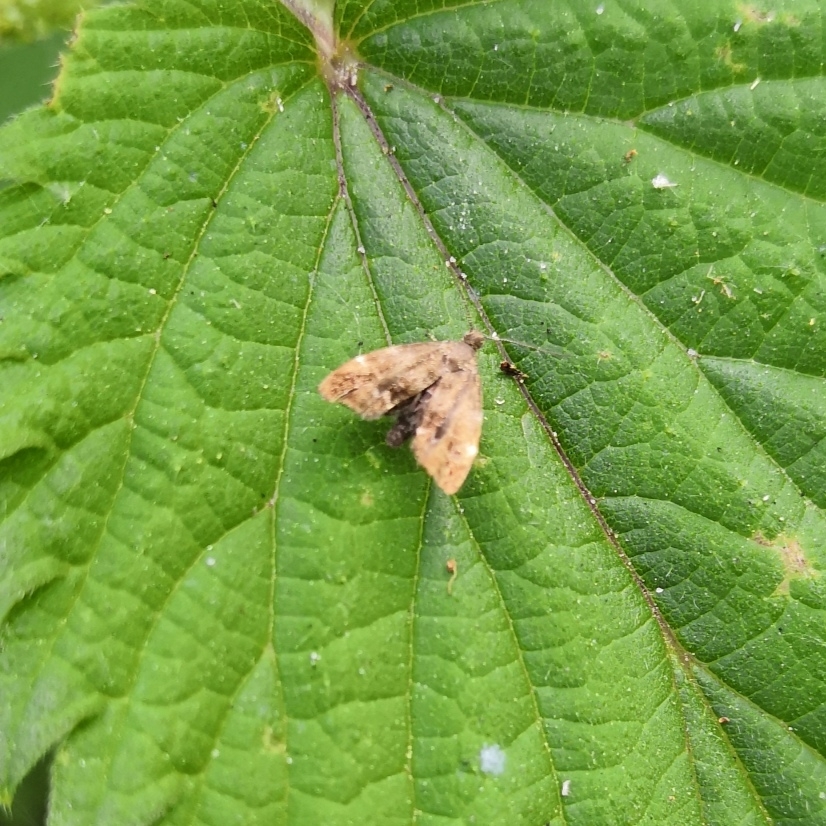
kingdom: Animalia
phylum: Arthropoda
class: Insecta
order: Lepidoptera
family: Choreutidae
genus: Anthophila
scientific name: Anthophila fabriciana
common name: Nettle-tap
